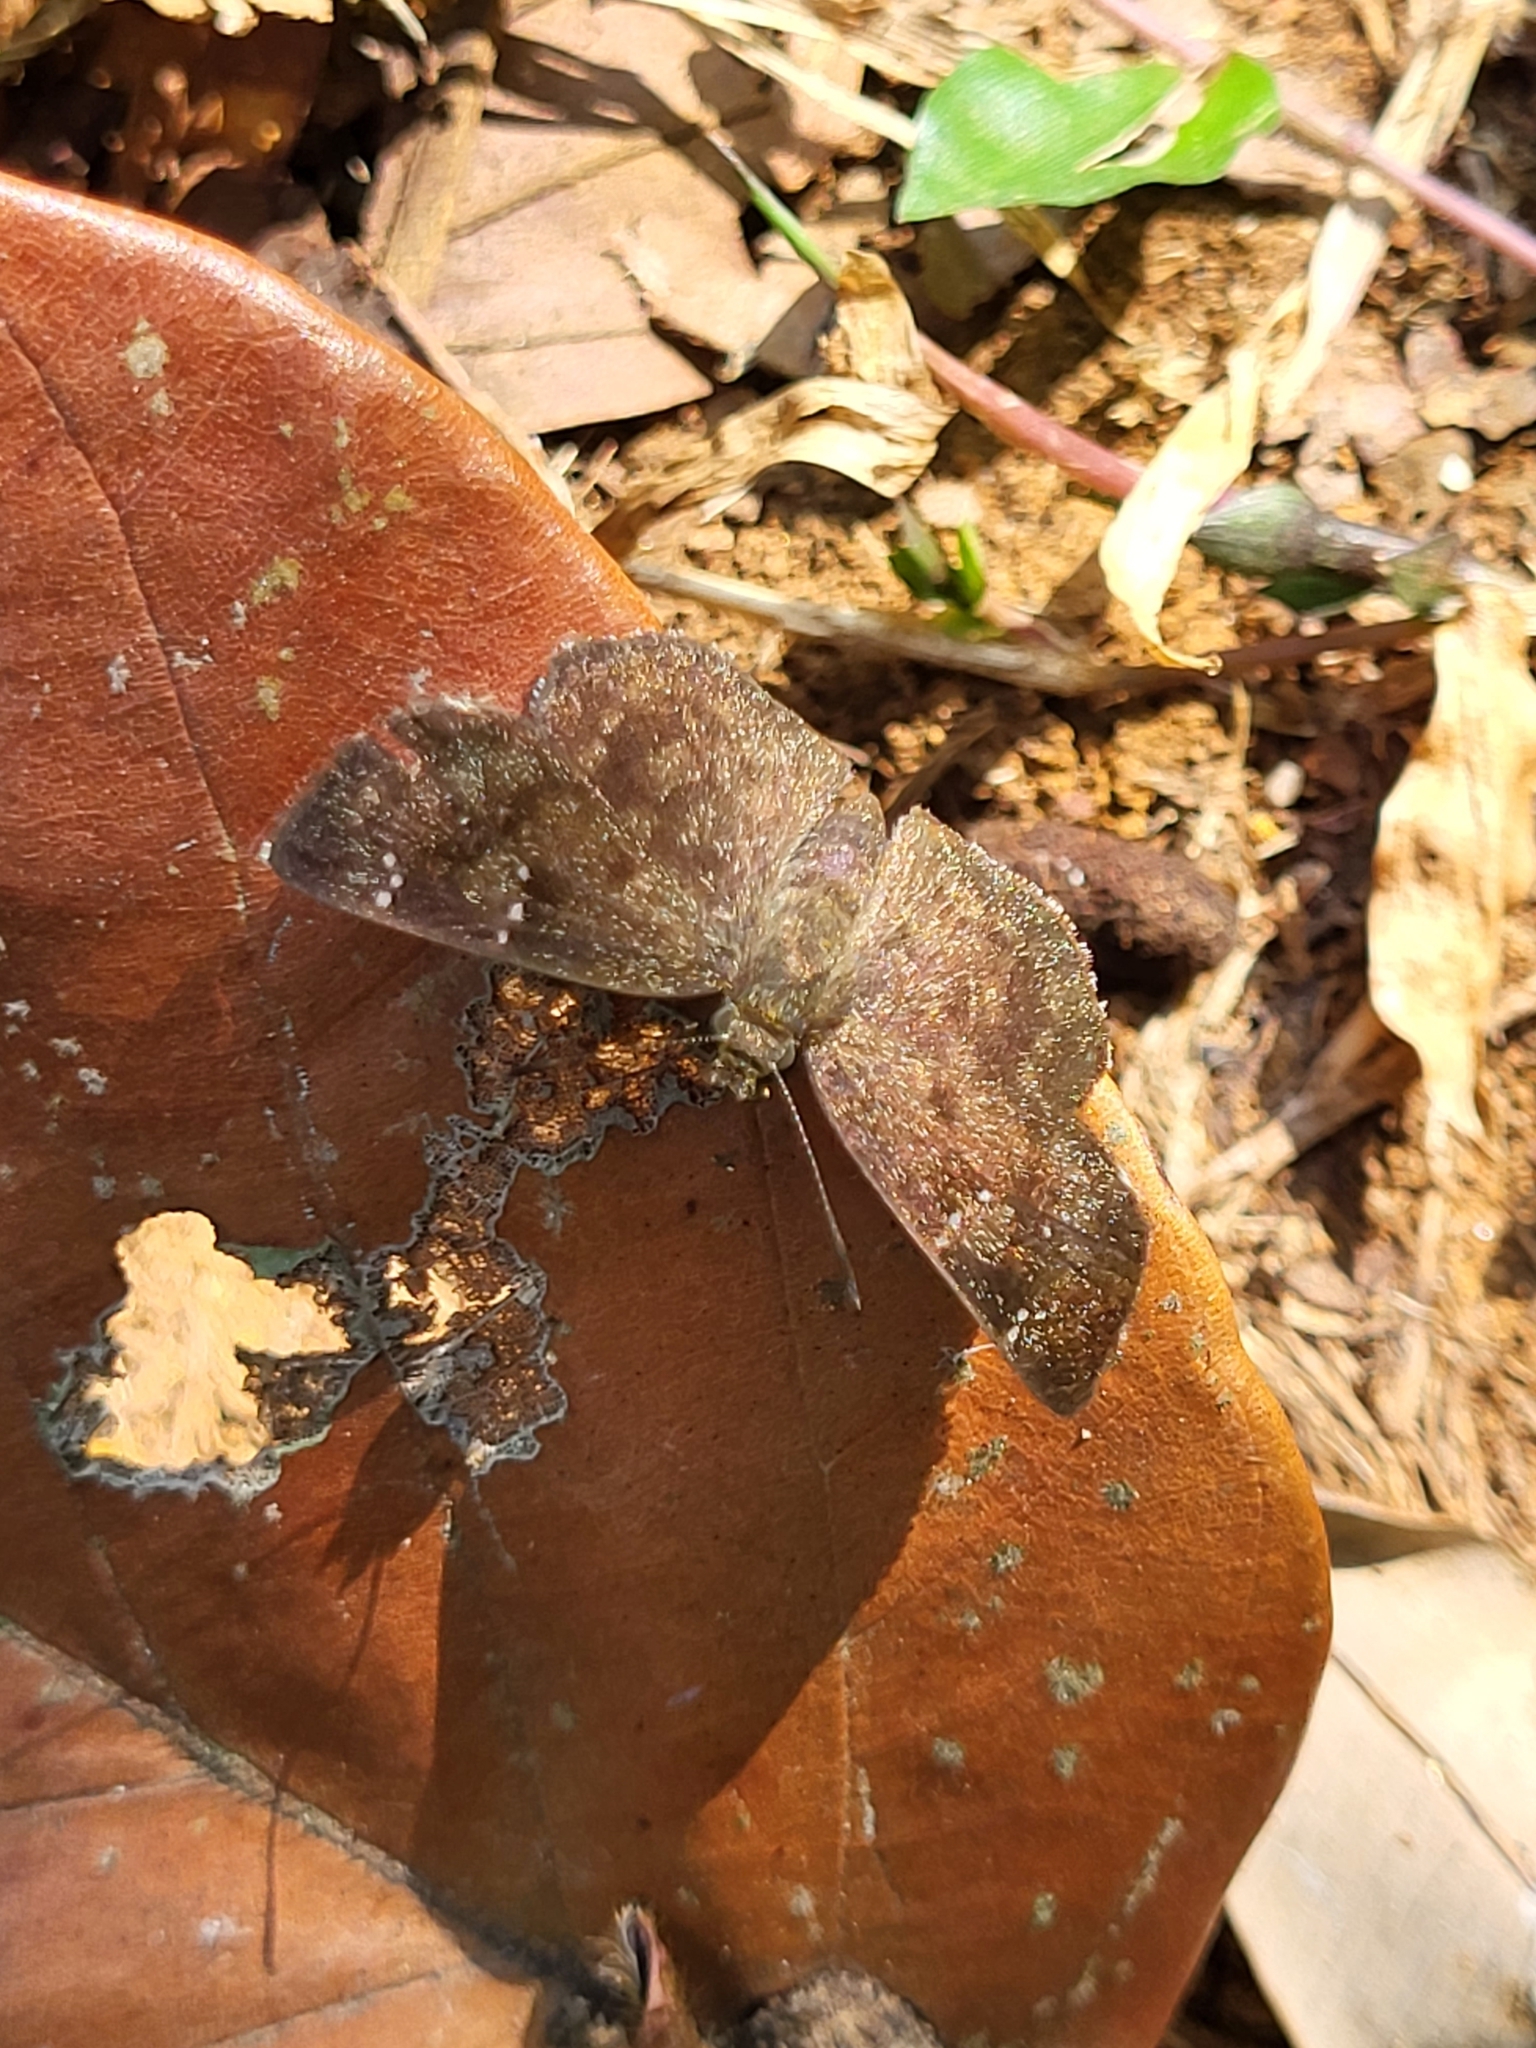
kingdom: Animalia
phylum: Arthropoda
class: Insecta
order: Lepidoptera
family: Hesperiidae
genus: Sarangesa
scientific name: Sarangesa dasahara
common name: Common small flat
